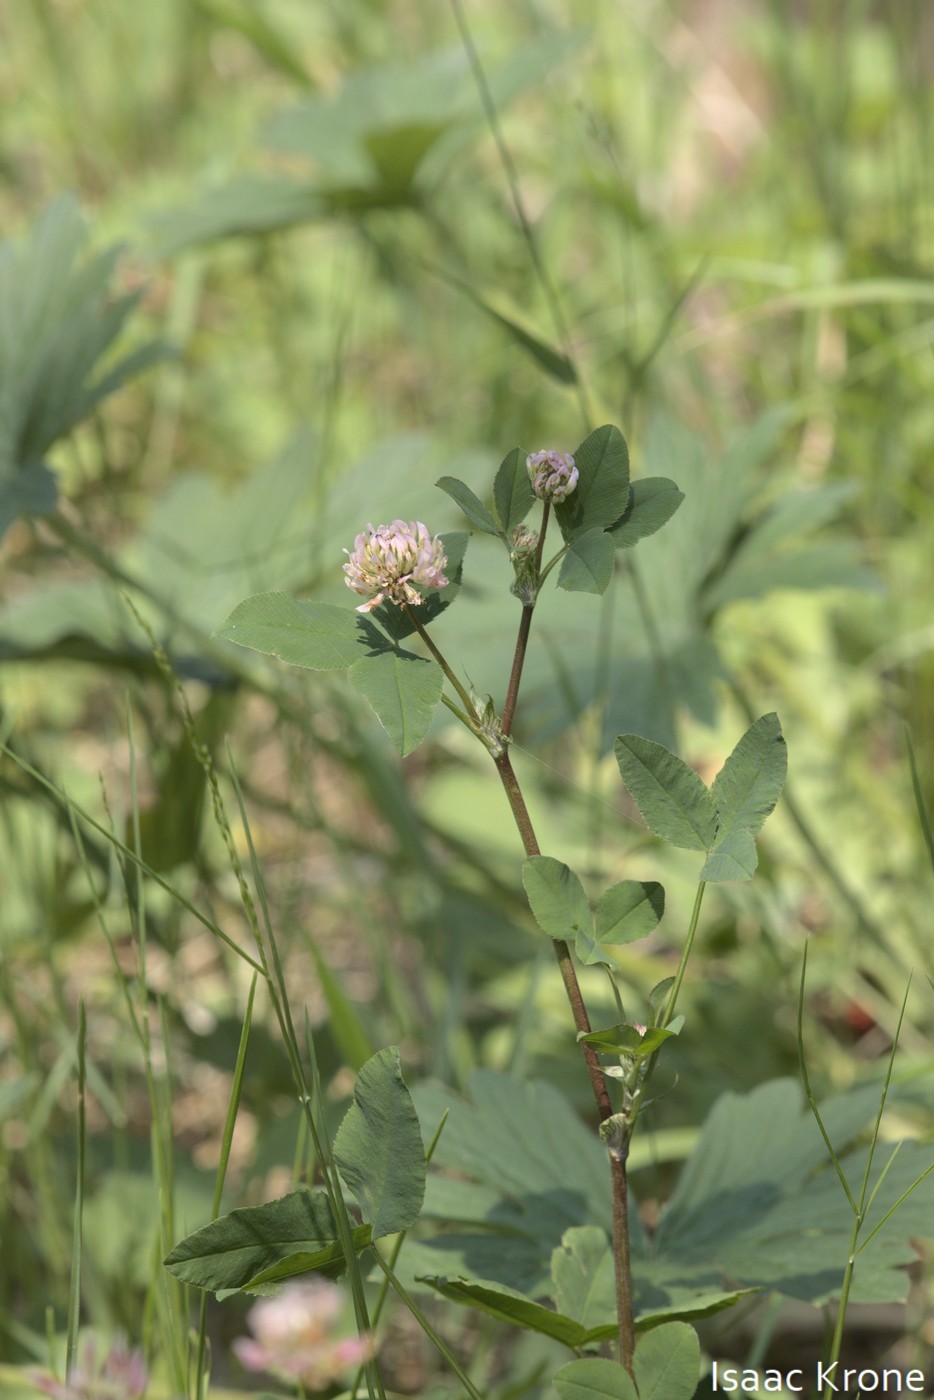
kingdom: Plantae
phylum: Tracheophyta
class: Magnoliopsida
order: Fabales
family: Fabaceae
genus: Trifolium
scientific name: Trifolium hybridum
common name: Alsike clover
